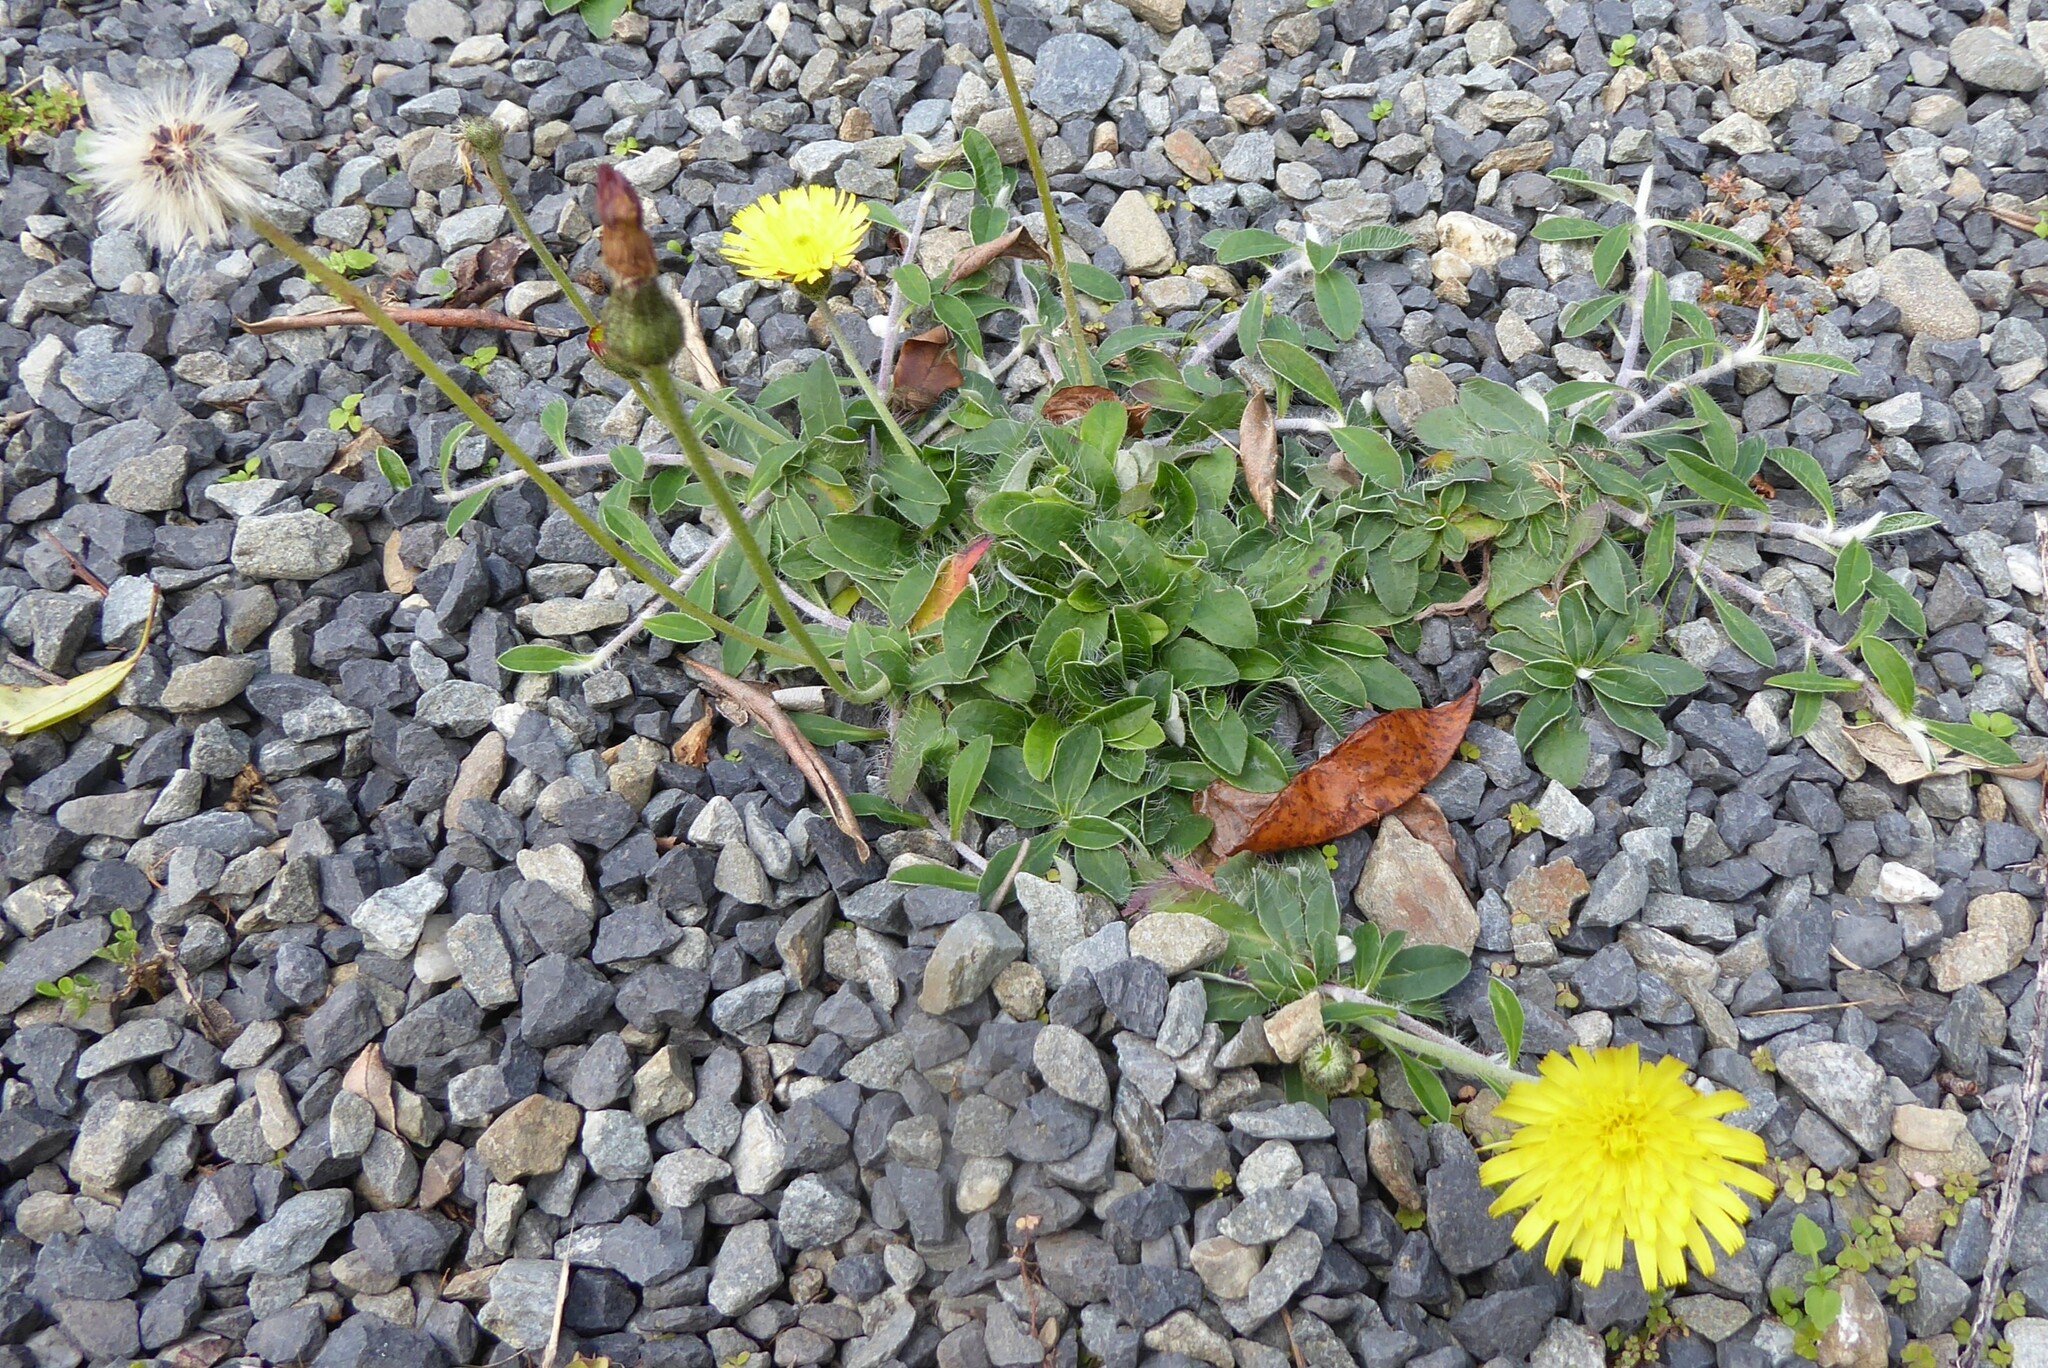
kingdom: Plantae
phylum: Tracheophyta
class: Magnoliopsida
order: Asterales
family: Asteraceae
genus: Pilosella
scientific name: Pilosella officinarum
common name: Mouse-ear hawkweed
